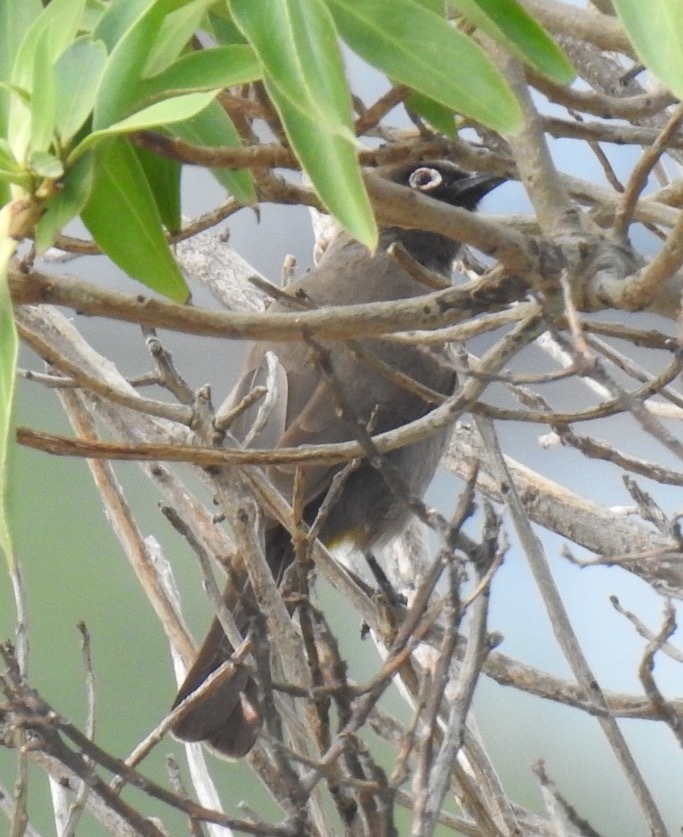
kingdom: Animalia
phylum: Chordata
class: Aves
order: Passeriformes
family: Pycnonotidae
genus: Pycnonotus
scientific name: Pycnonotus capensis
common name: Cape bulbul
